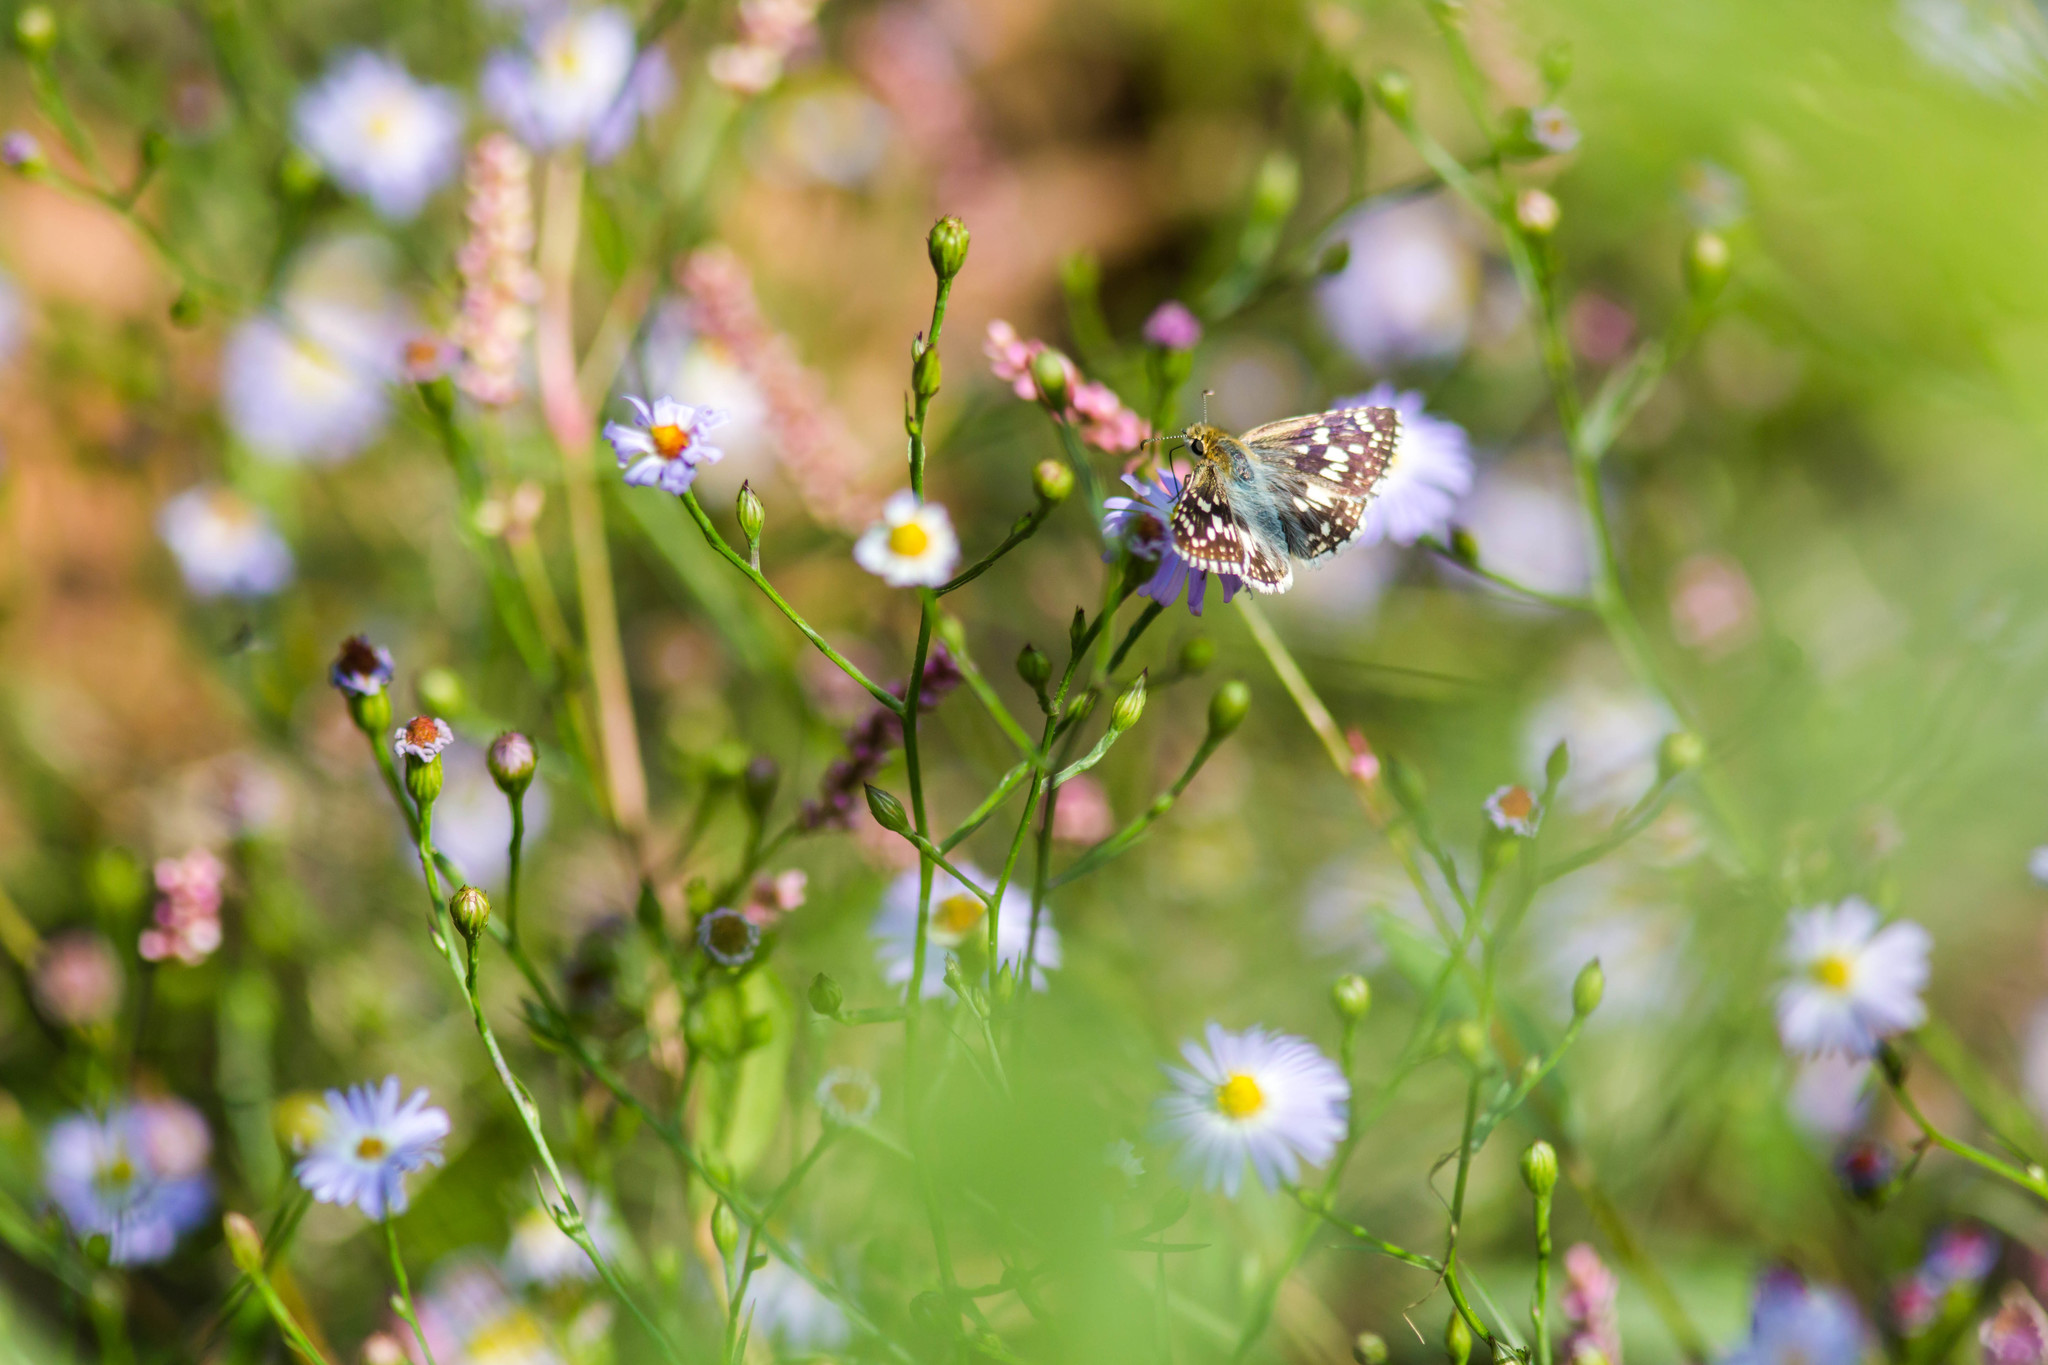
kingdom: Animalia
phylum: Arthropoda
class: Insecta
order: Lepidoptera
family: Hesperiidae
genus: Burnsius
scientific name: Burnsius communis
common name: Common checkered-skipper
